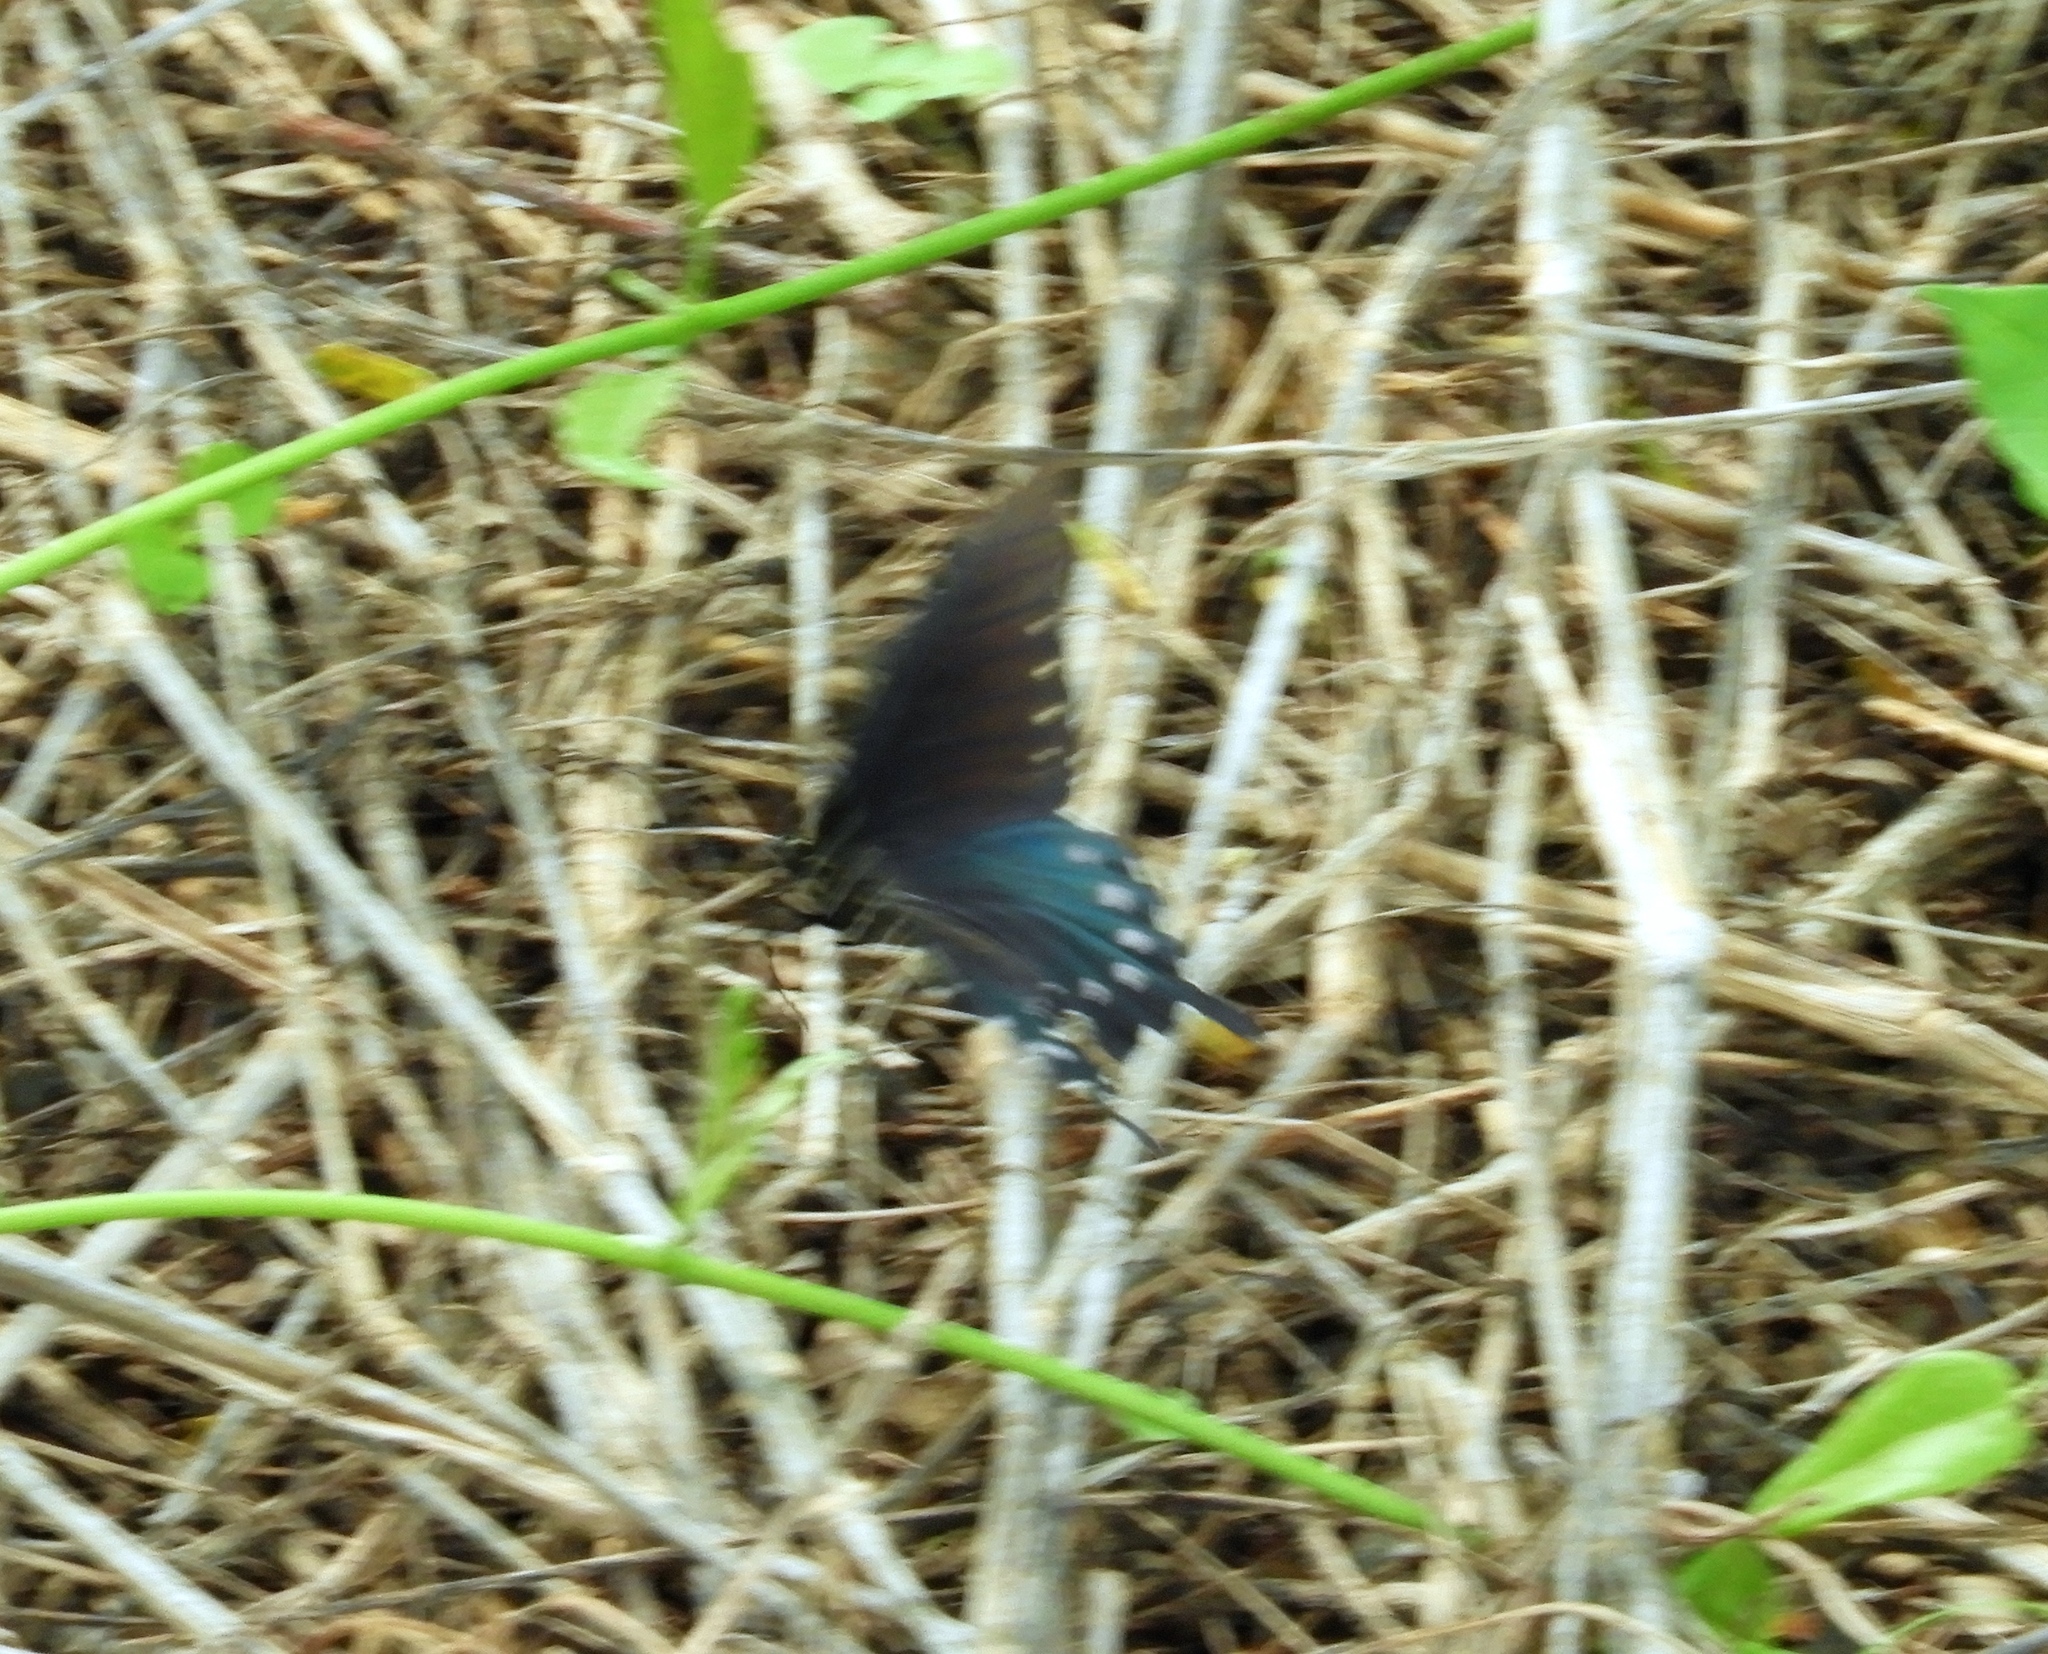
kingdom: Animalia
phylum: Arthropoda
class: Insecta
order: Lepidoptera
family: Papilionidae
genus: Battus
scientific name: Battus philenor
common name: Pipevine swallowtail
